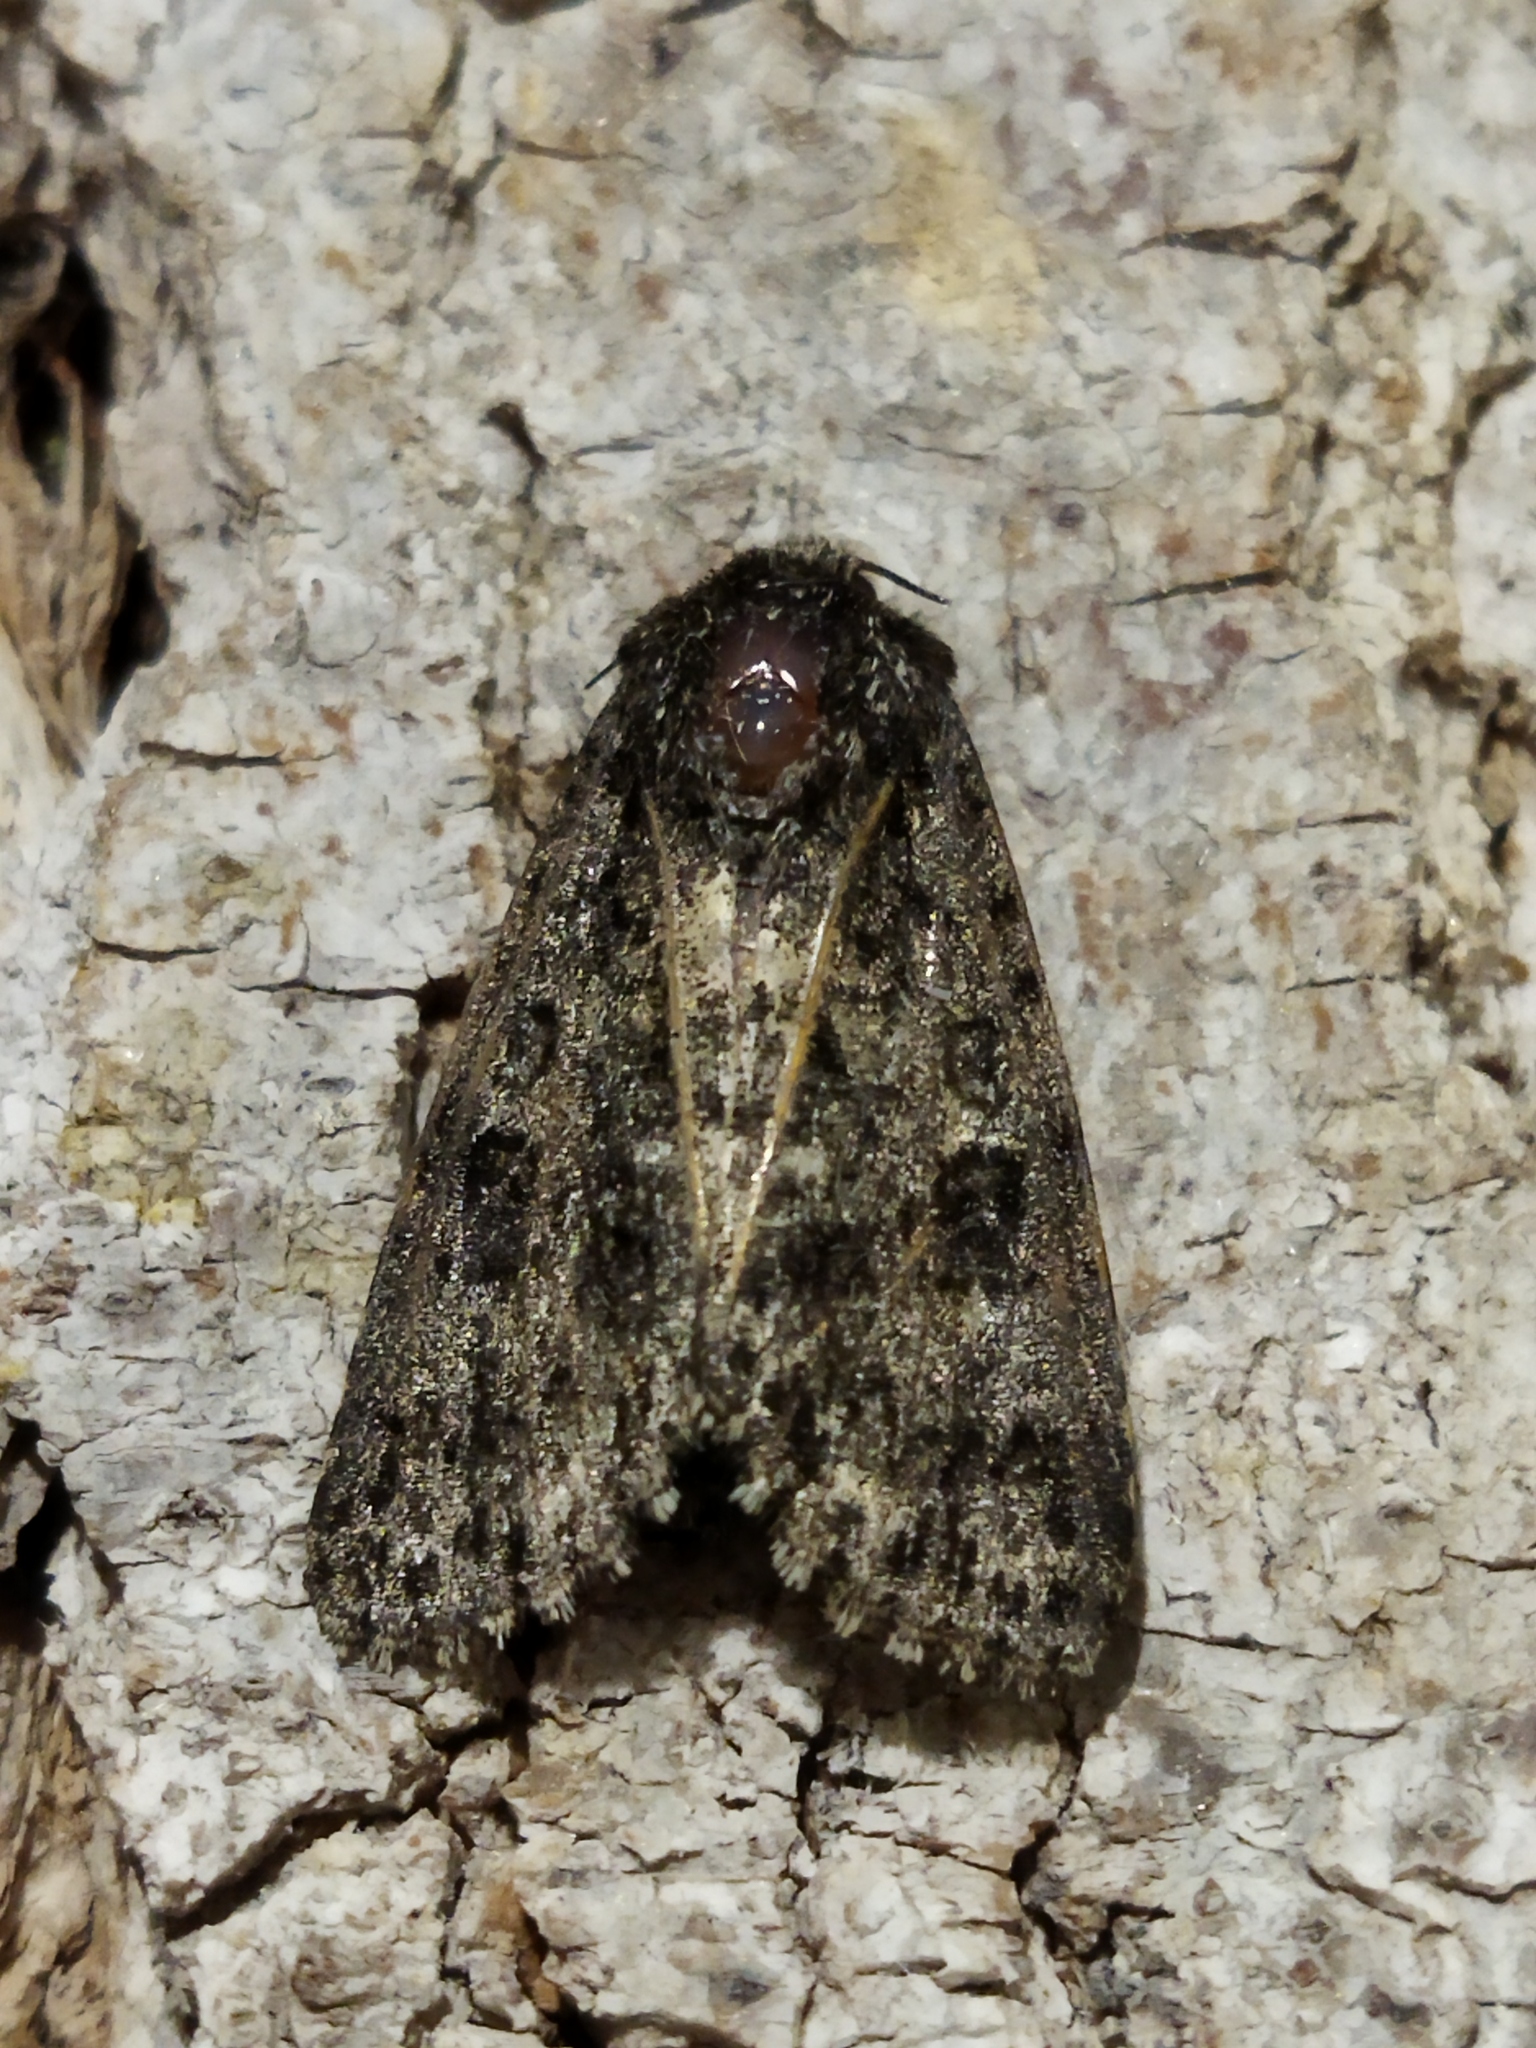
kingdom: Animalia
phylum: Arthropoda
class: Insecta
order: Lepidoptera
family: Noctuidae
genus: Acronicta
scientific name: Acronicta rumicis
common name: Knot grass
